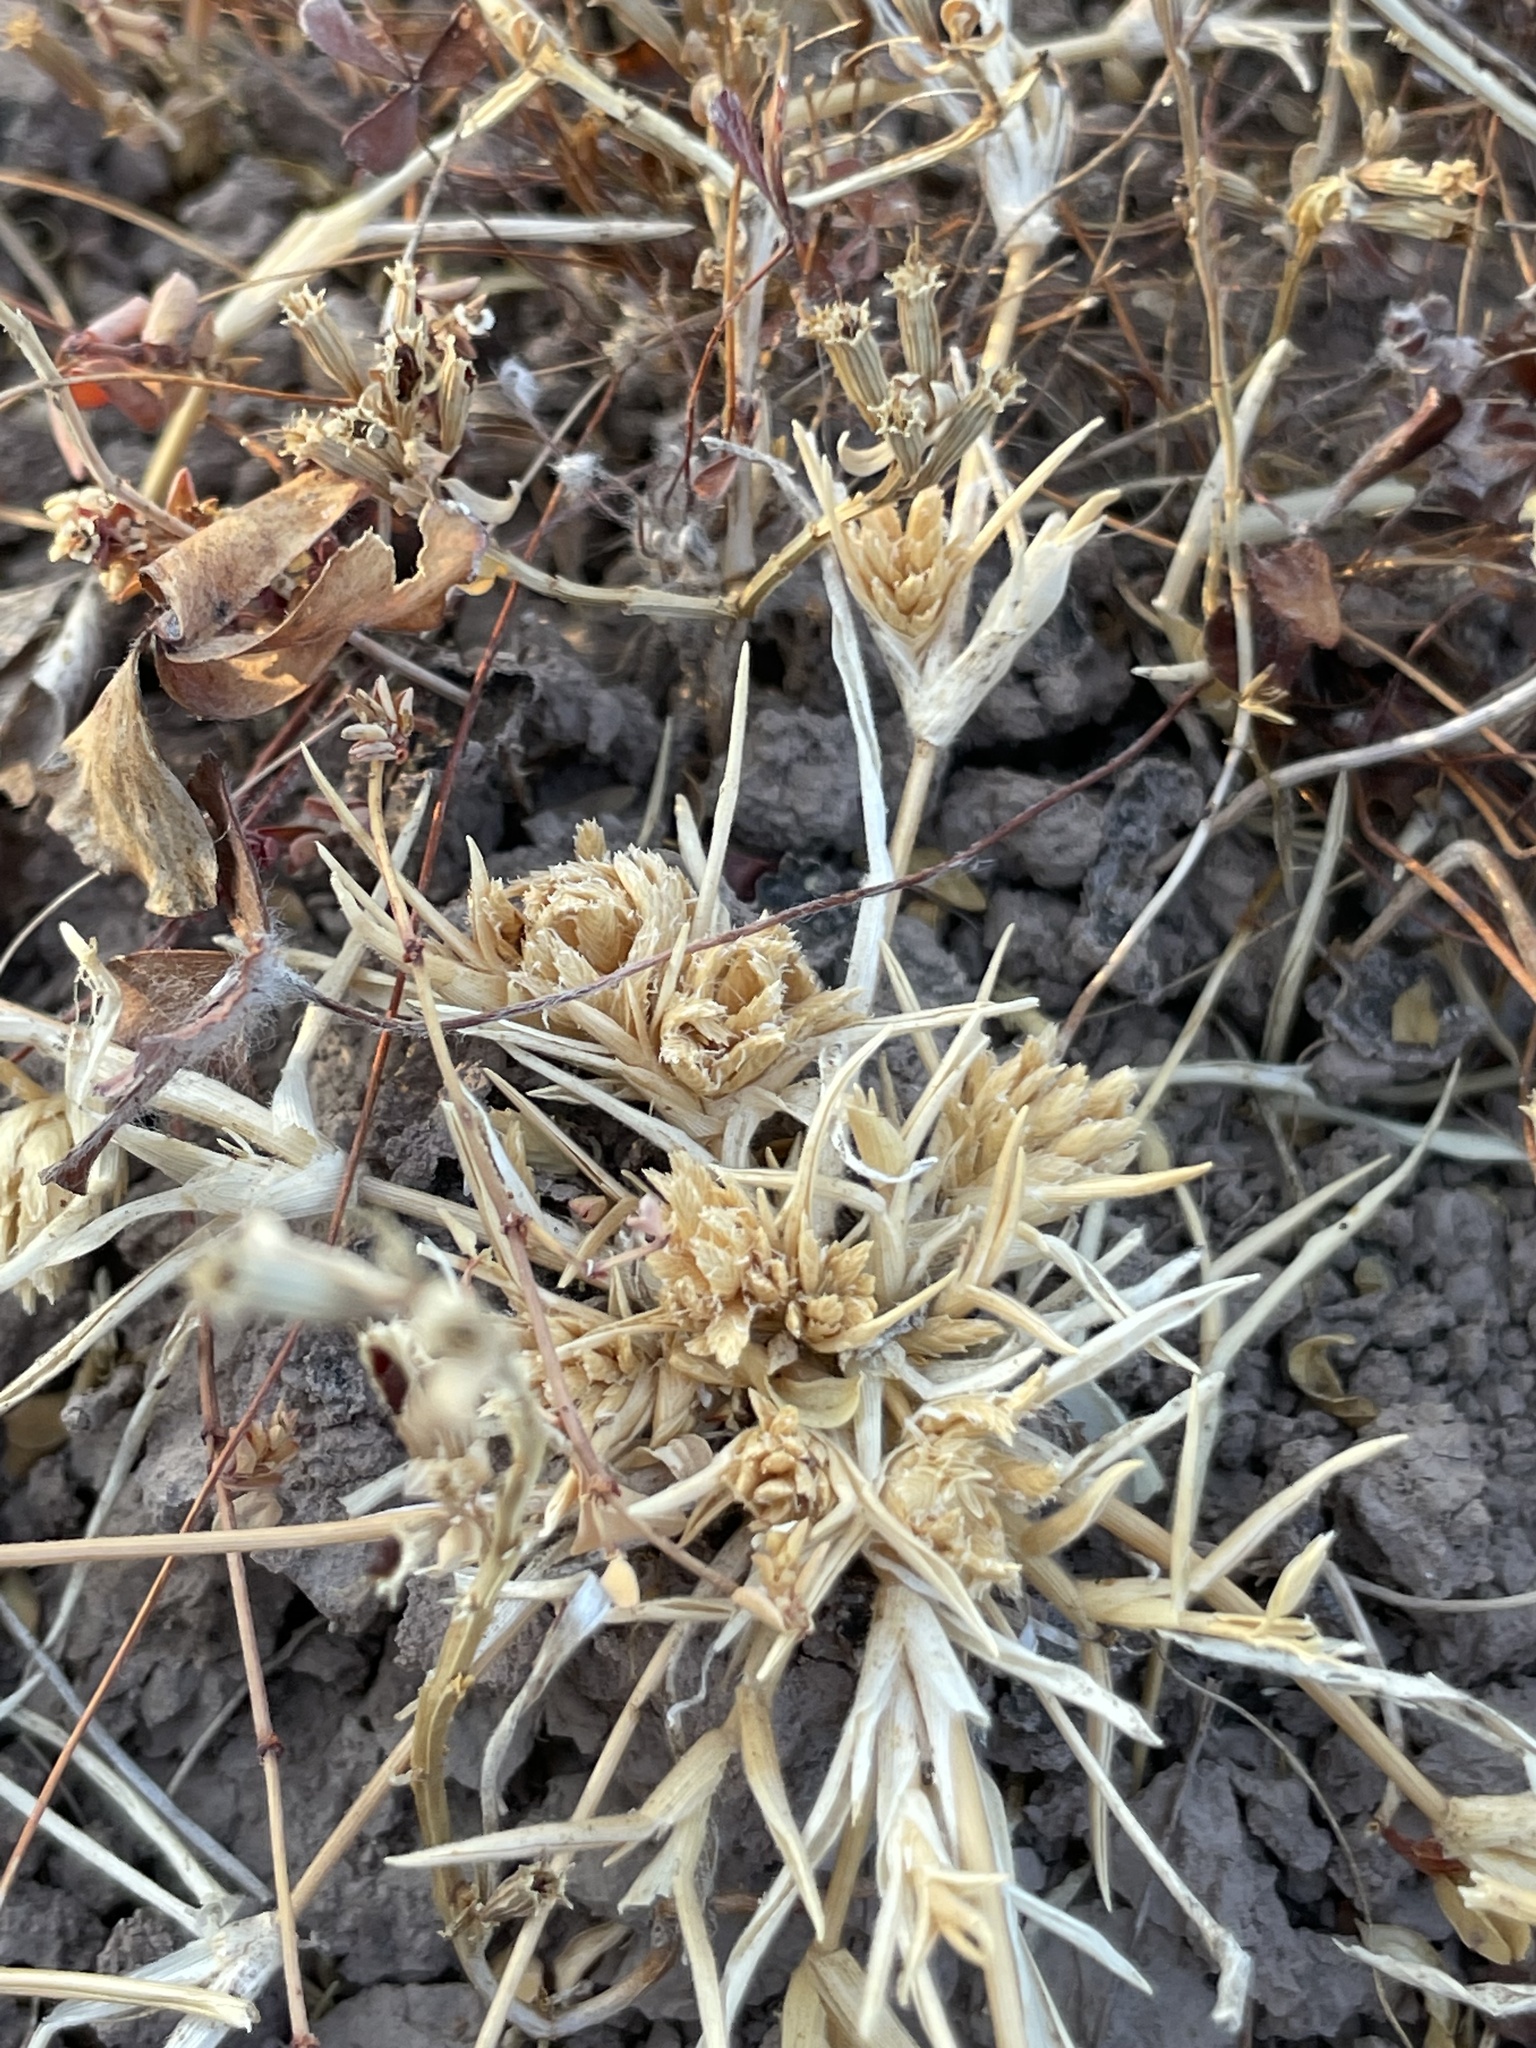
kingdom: Plantae
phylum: Tracheophyta
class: Liliopsida
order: Poales
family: Poaceae
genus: Eragrostis
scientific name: Eragrostis reptans
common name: Creeping love grass
